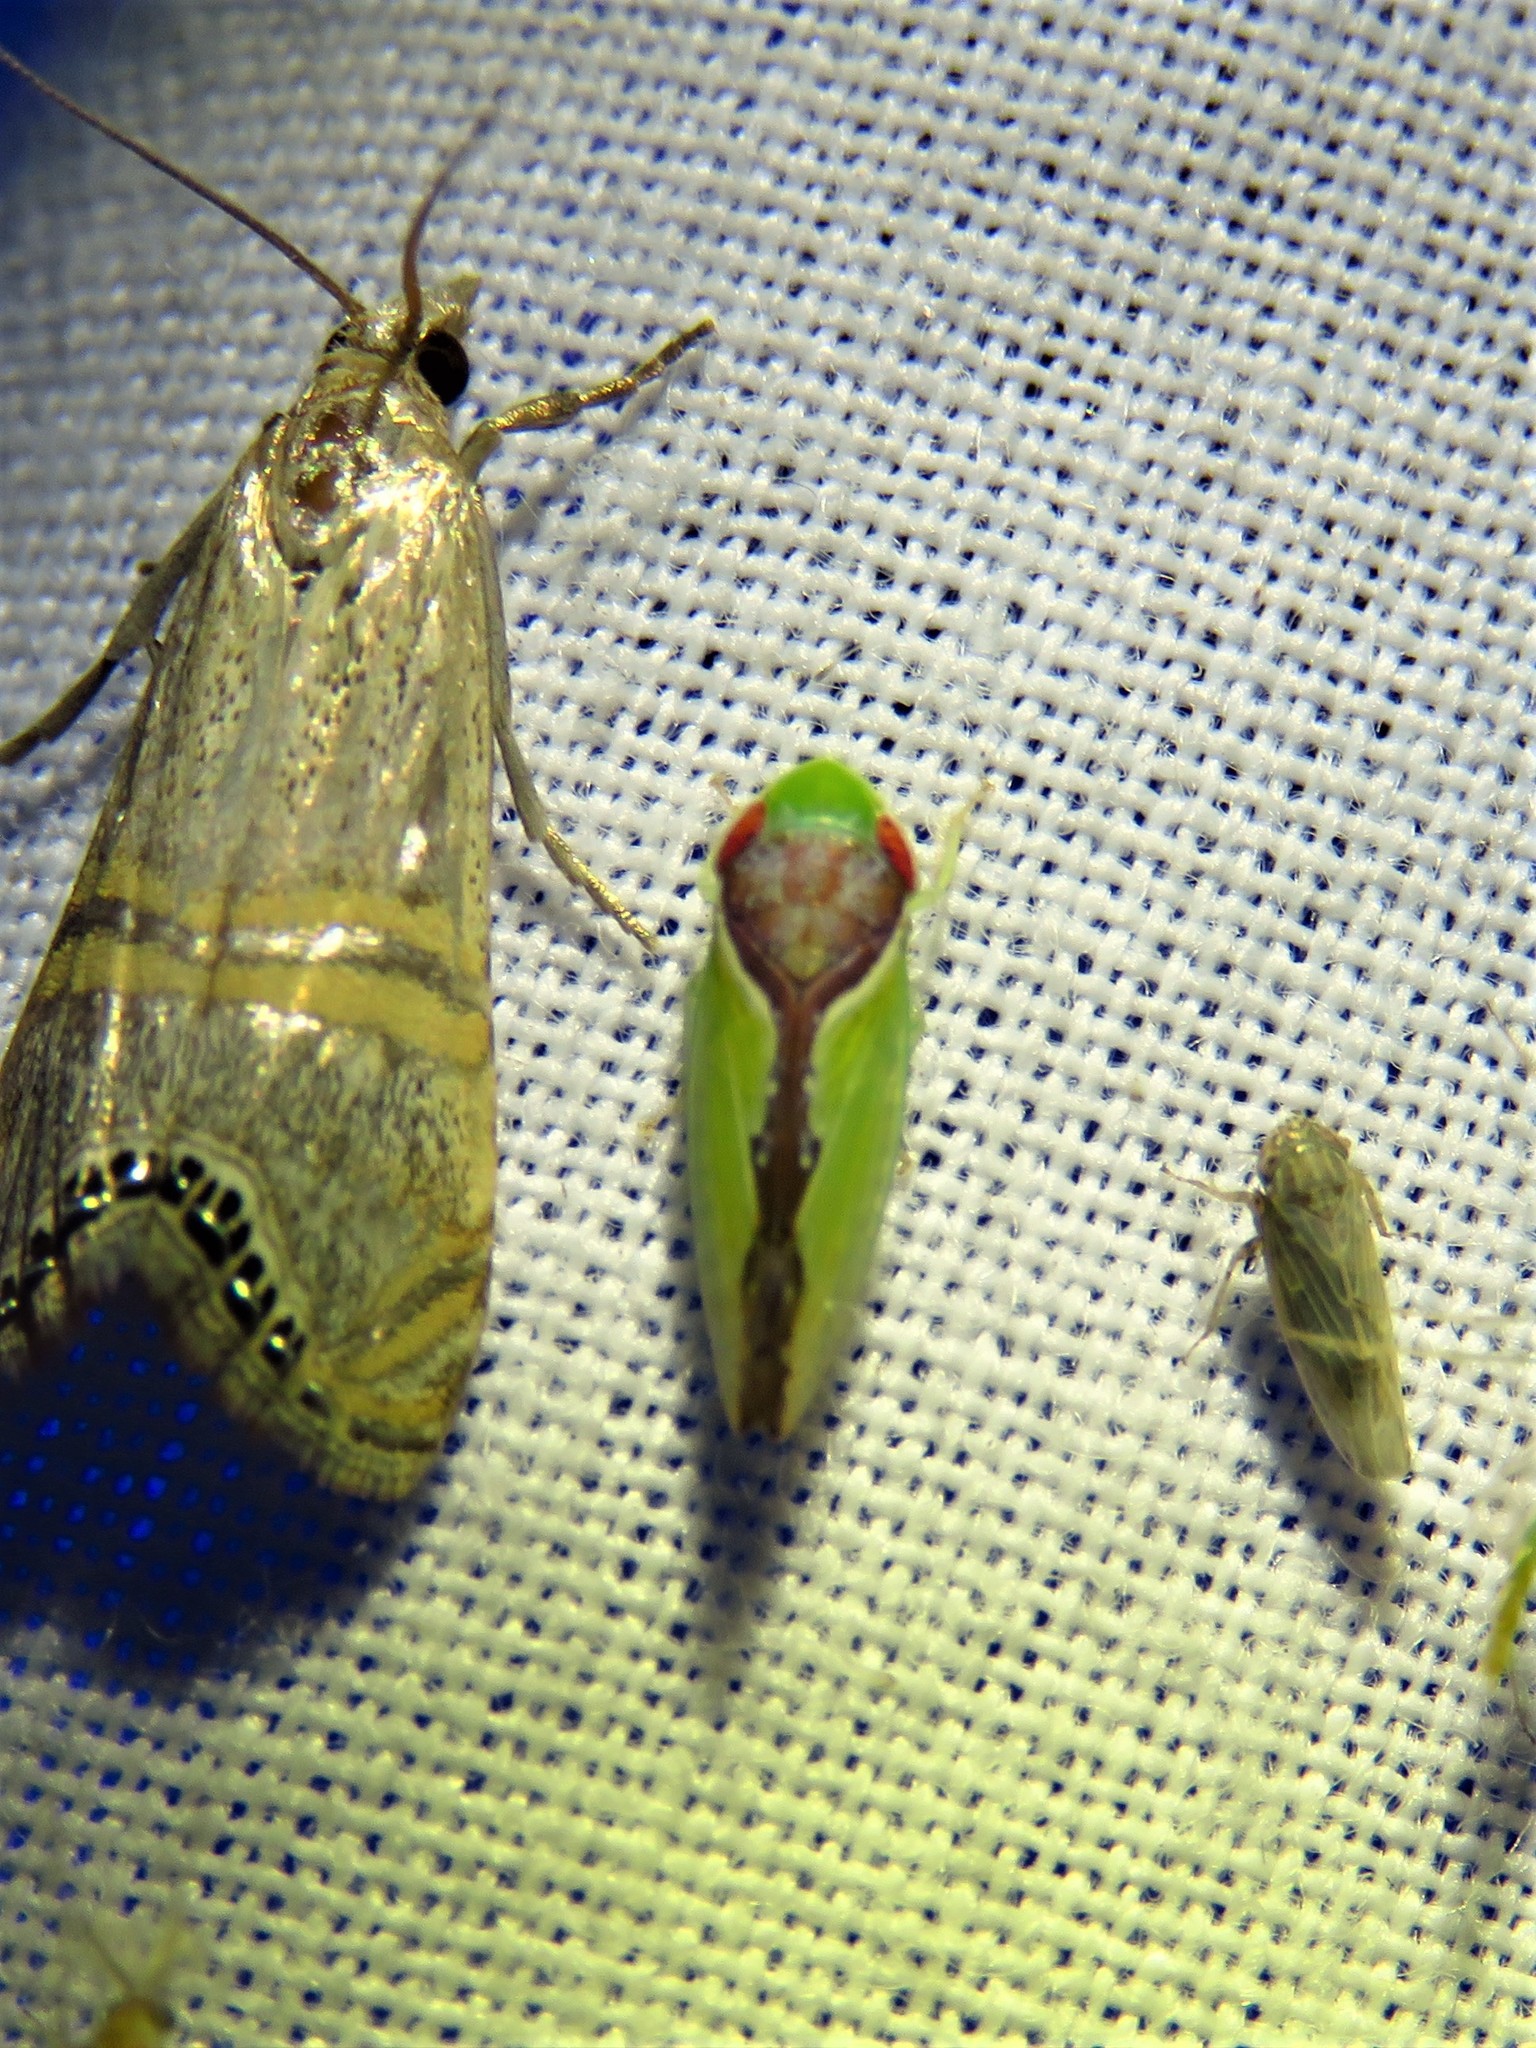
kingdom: Animalia
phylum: Arthropoda
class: Insecta
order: Hemiptera
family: Cicadellidae
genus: Omansobara ing
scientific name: Omansobara ing Omansobara palliolata
